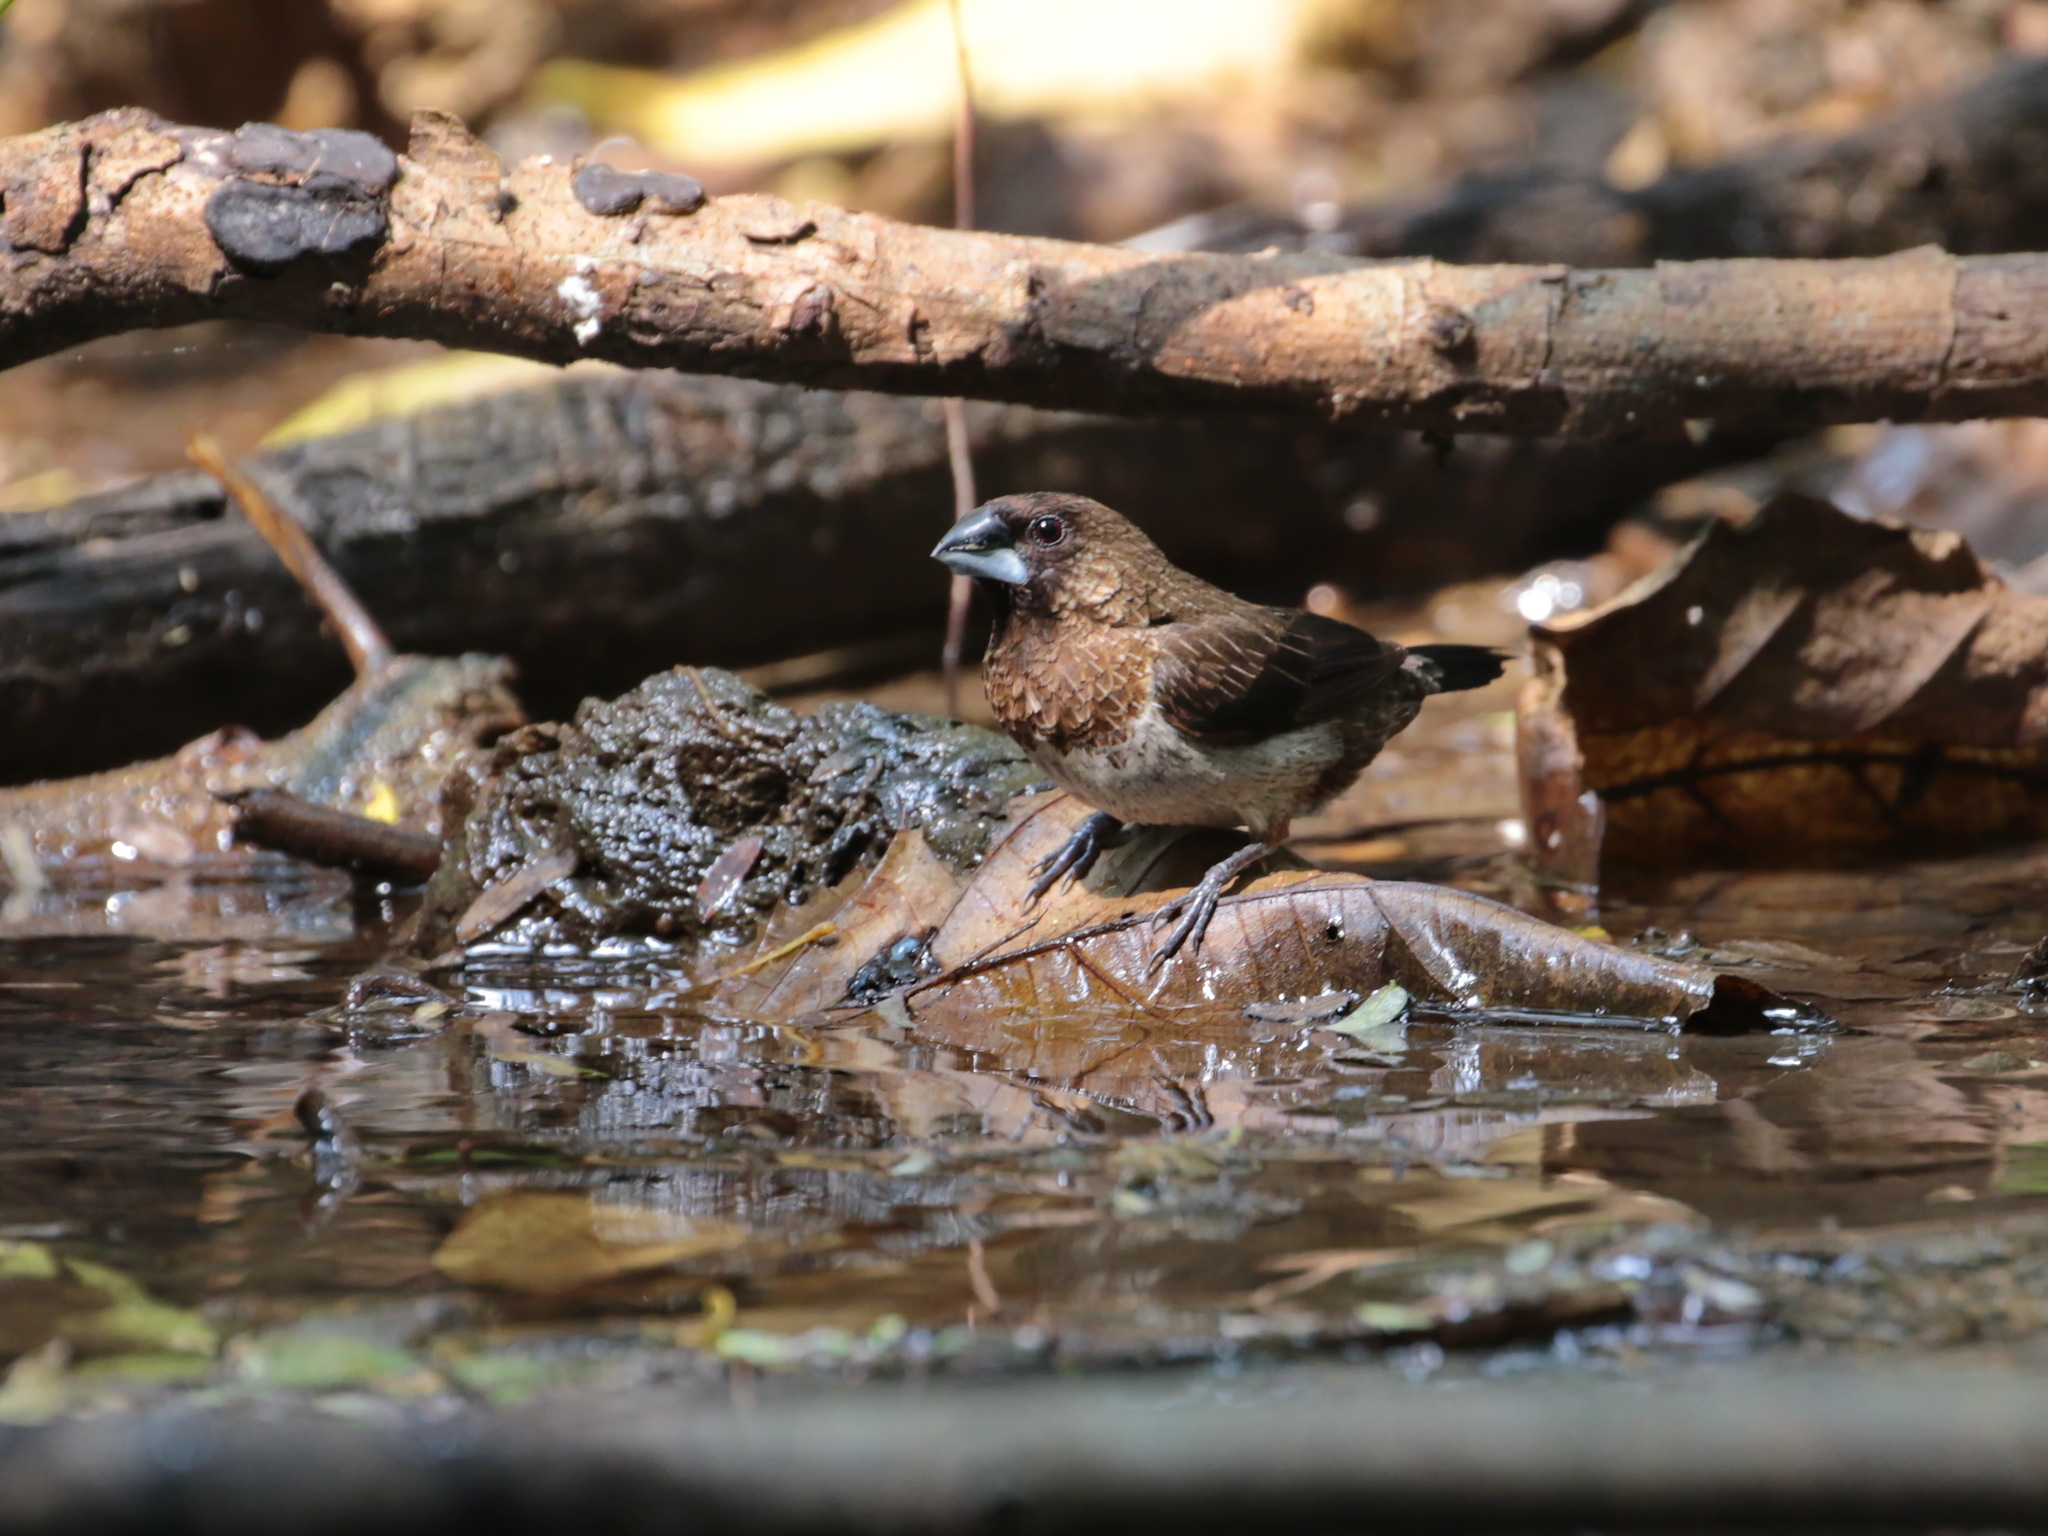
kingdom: Animalia
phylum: Chordata
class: Aves
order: Passeriformes
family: Estrildidae
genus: Lonchura
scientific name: Lonchura striata
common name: White-rumped munia
